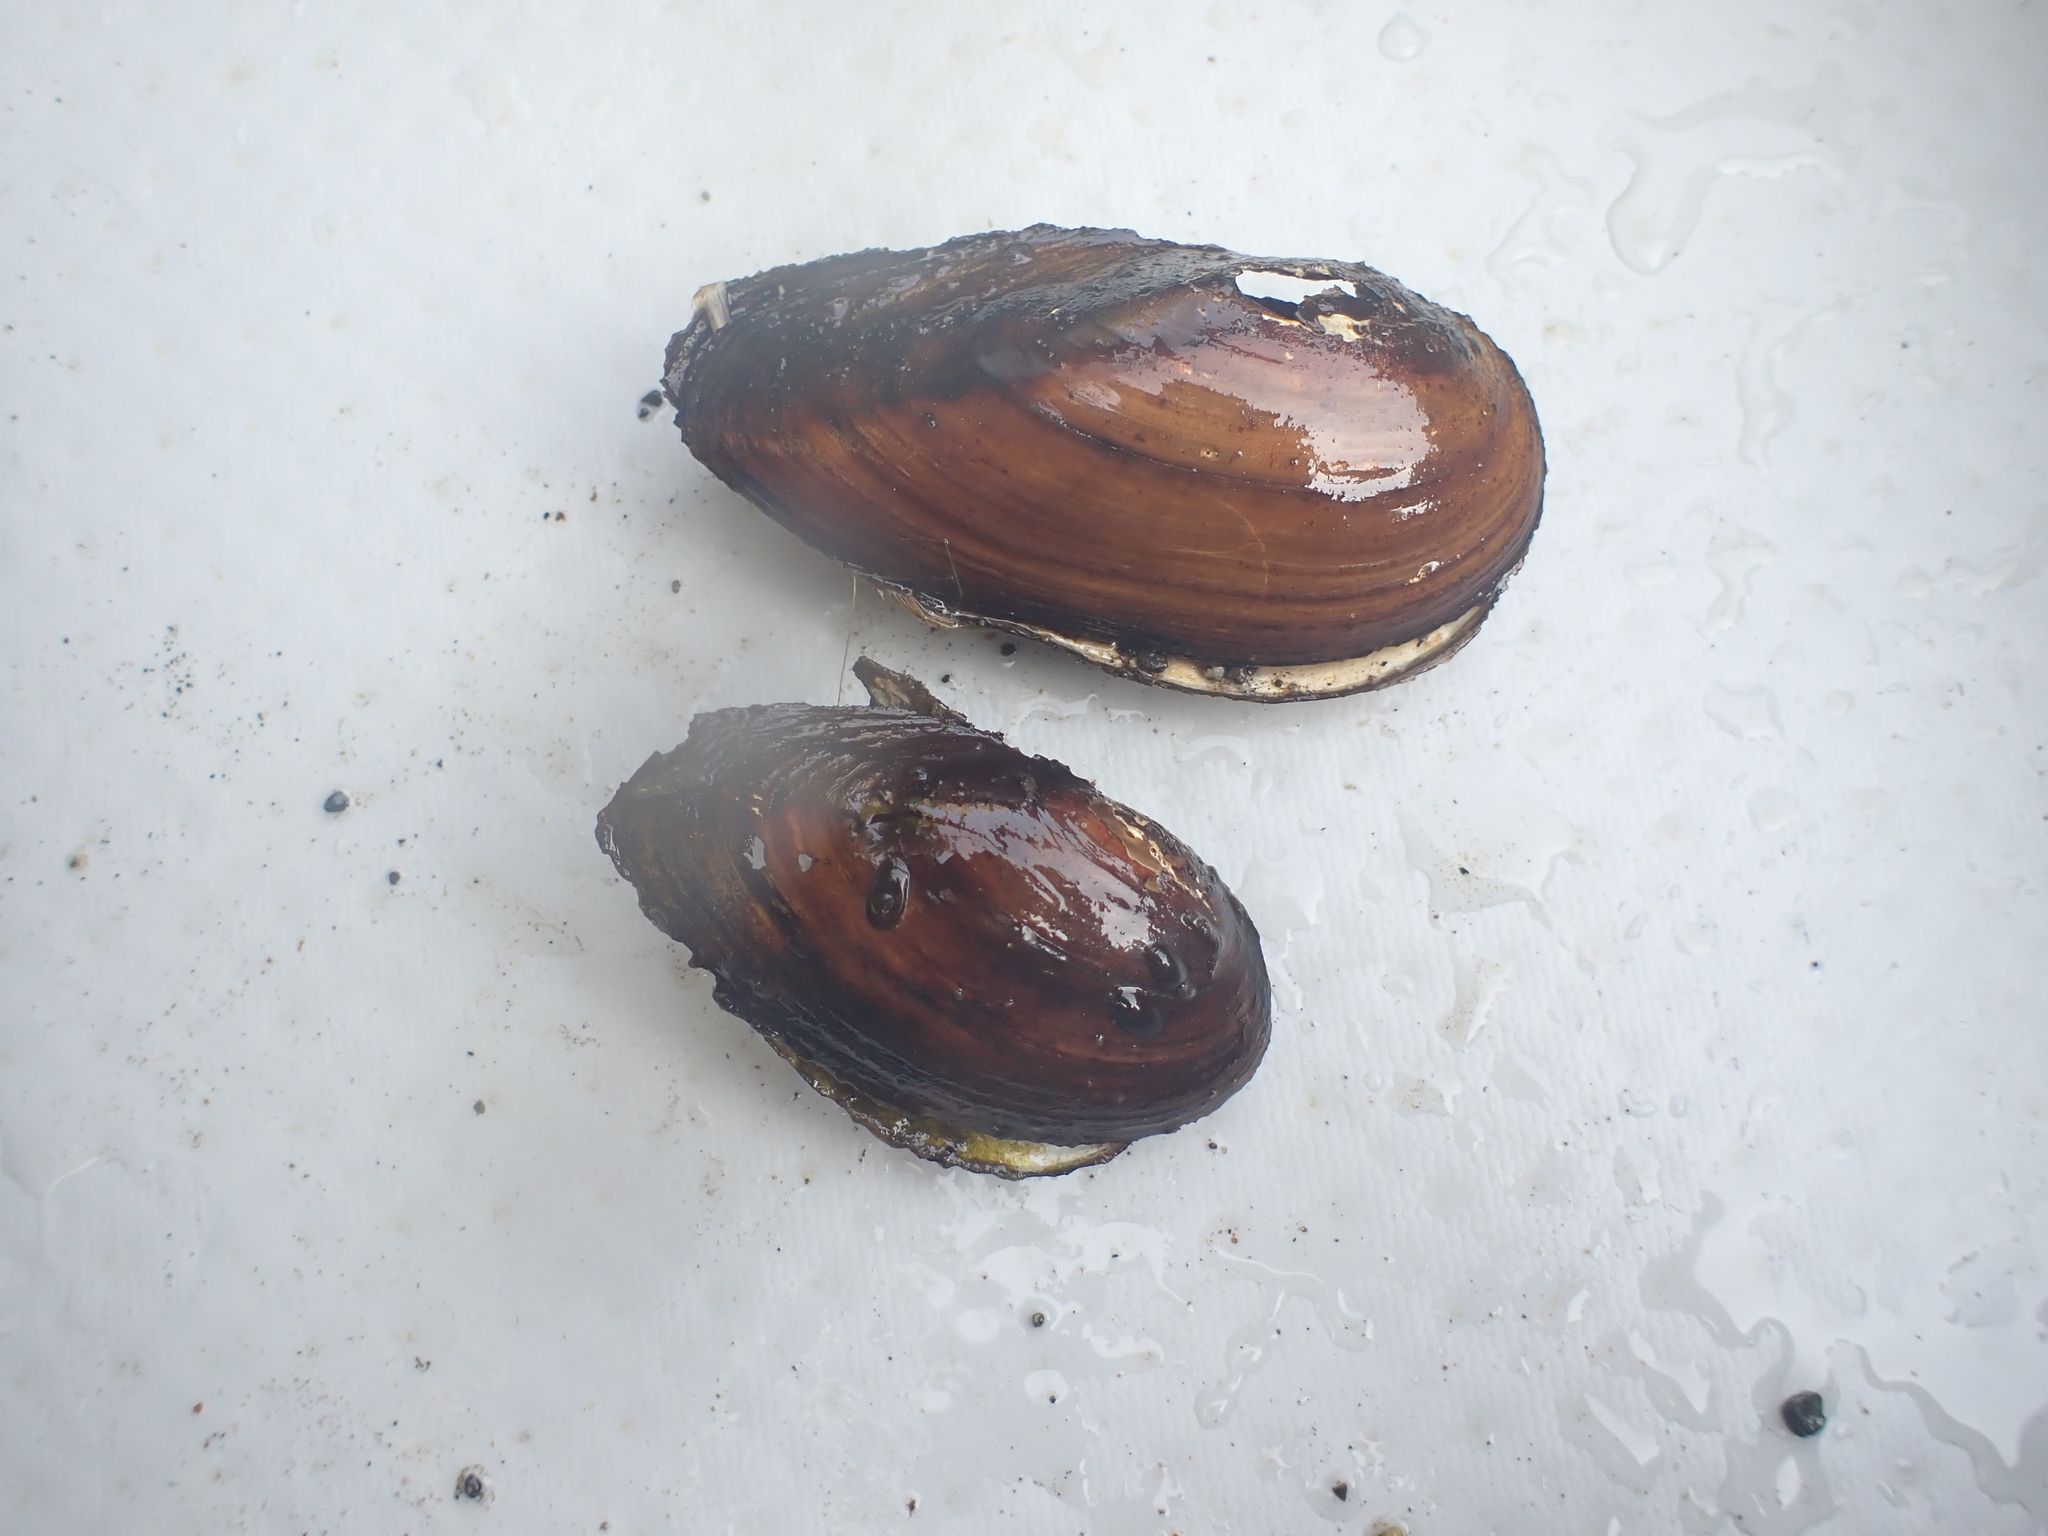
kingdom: Animalia
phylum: Mollusca
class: Bivalvia
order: Unionida
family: Unionidae
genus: Anodonta
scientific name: Anodonta kennerlyi
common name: Western floater
